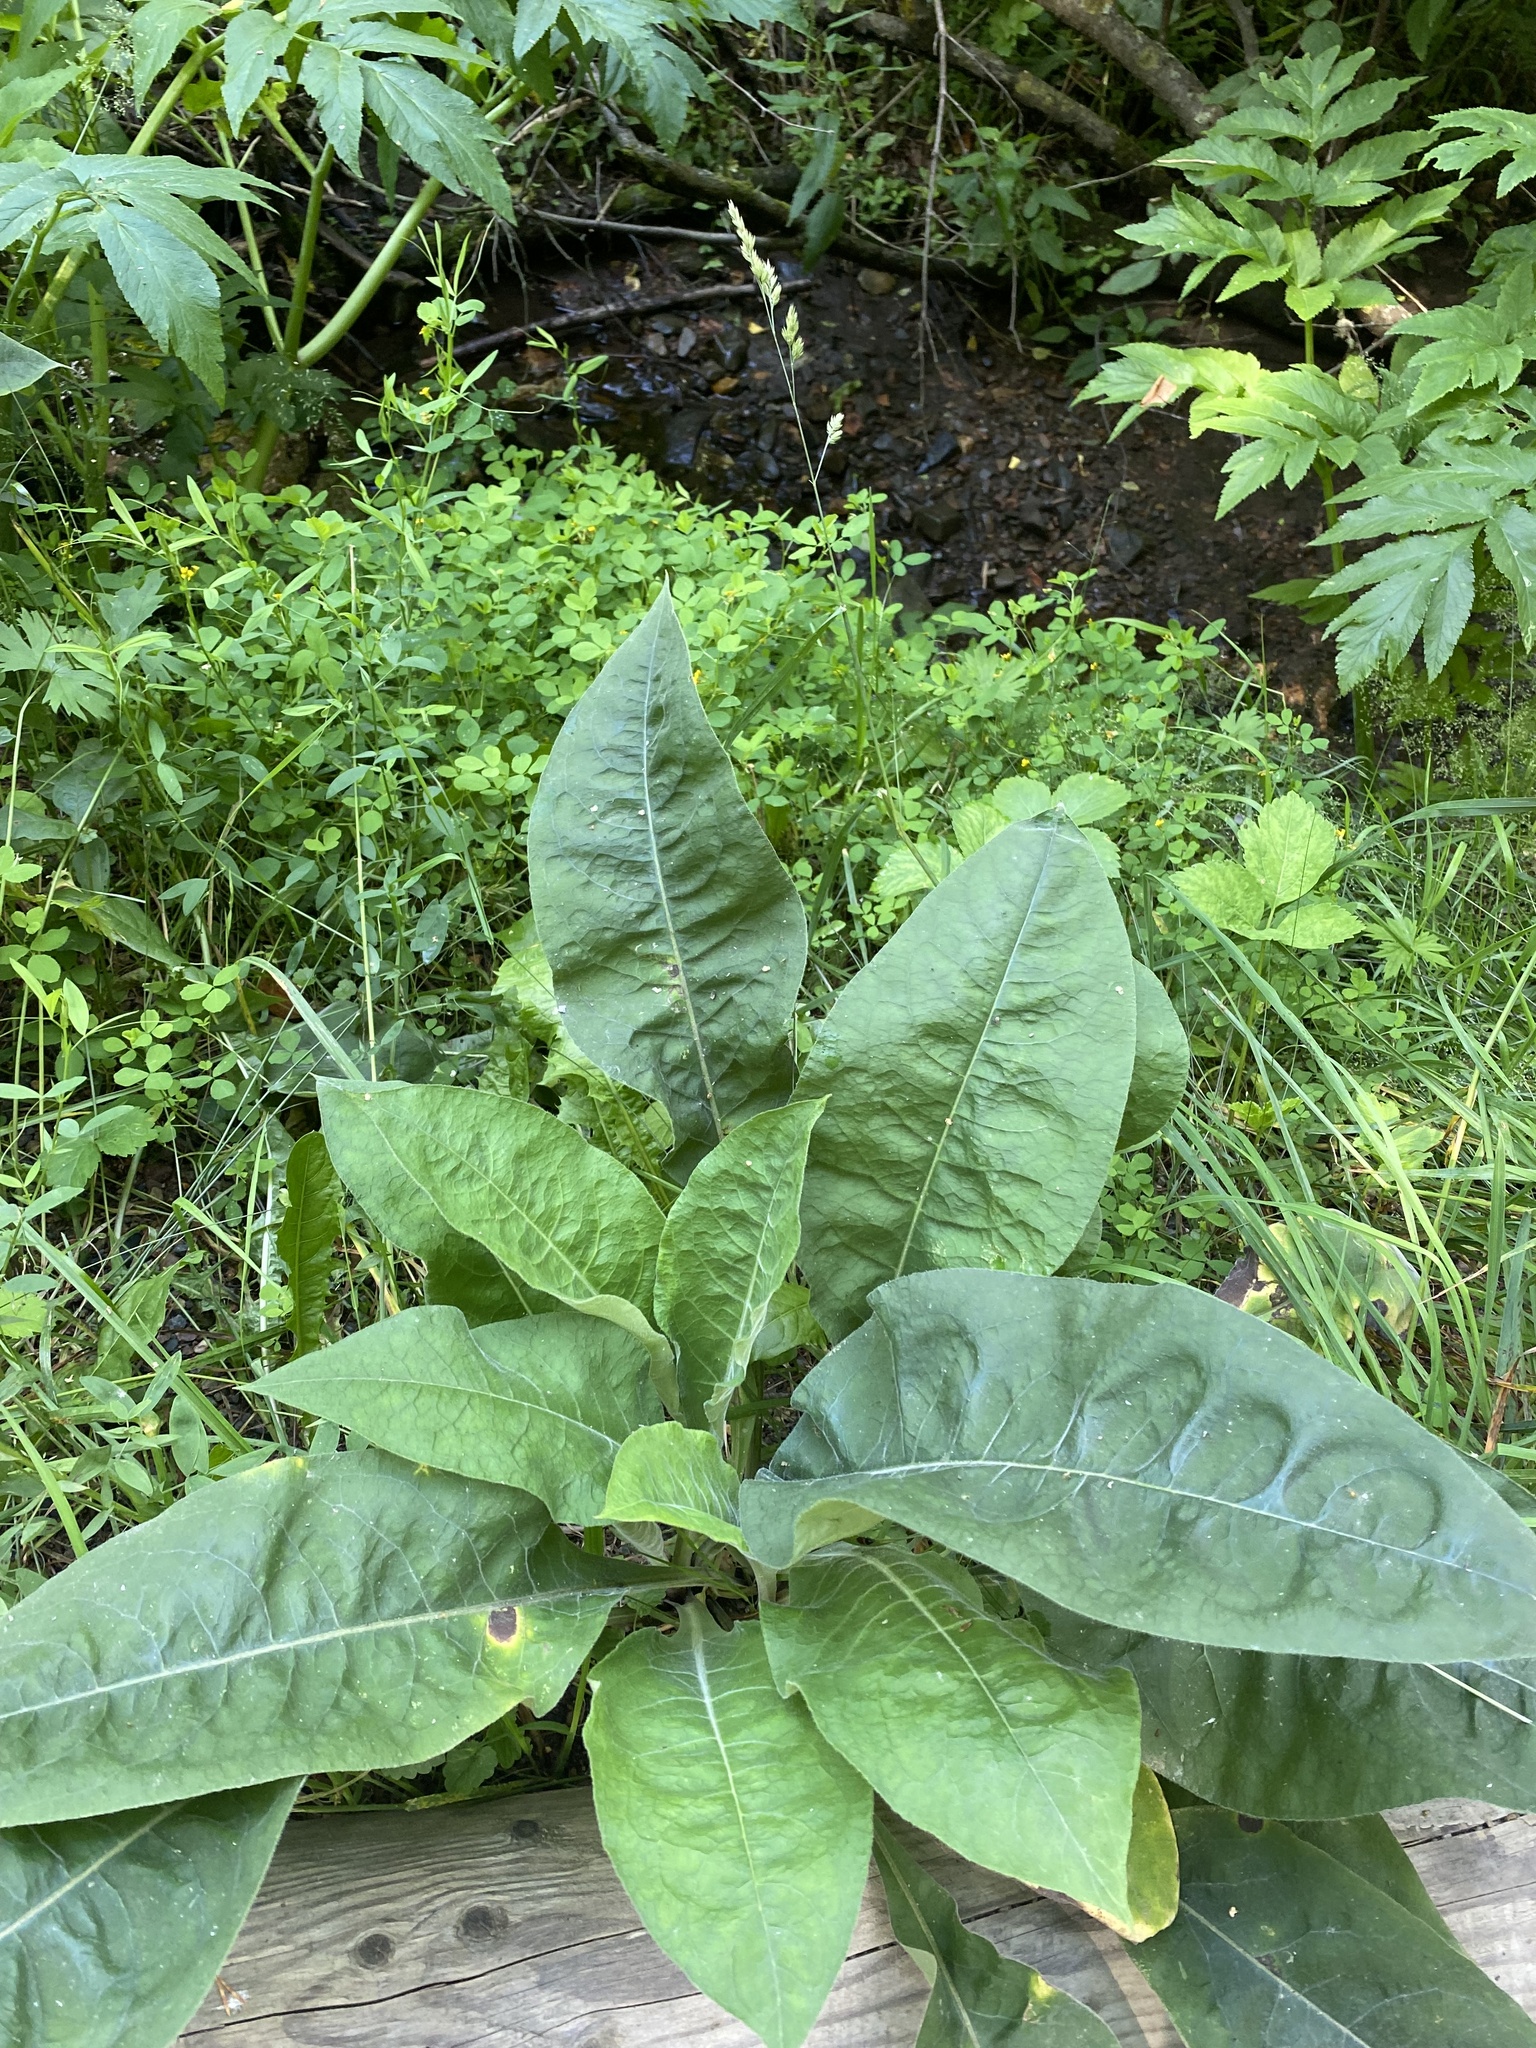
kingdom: Plantae
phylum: Tracheophyta
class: Magnoliopsida
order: Boraginales
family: Boraginaceae
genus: Pulmonaria
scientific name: Pulmonaria mollis
